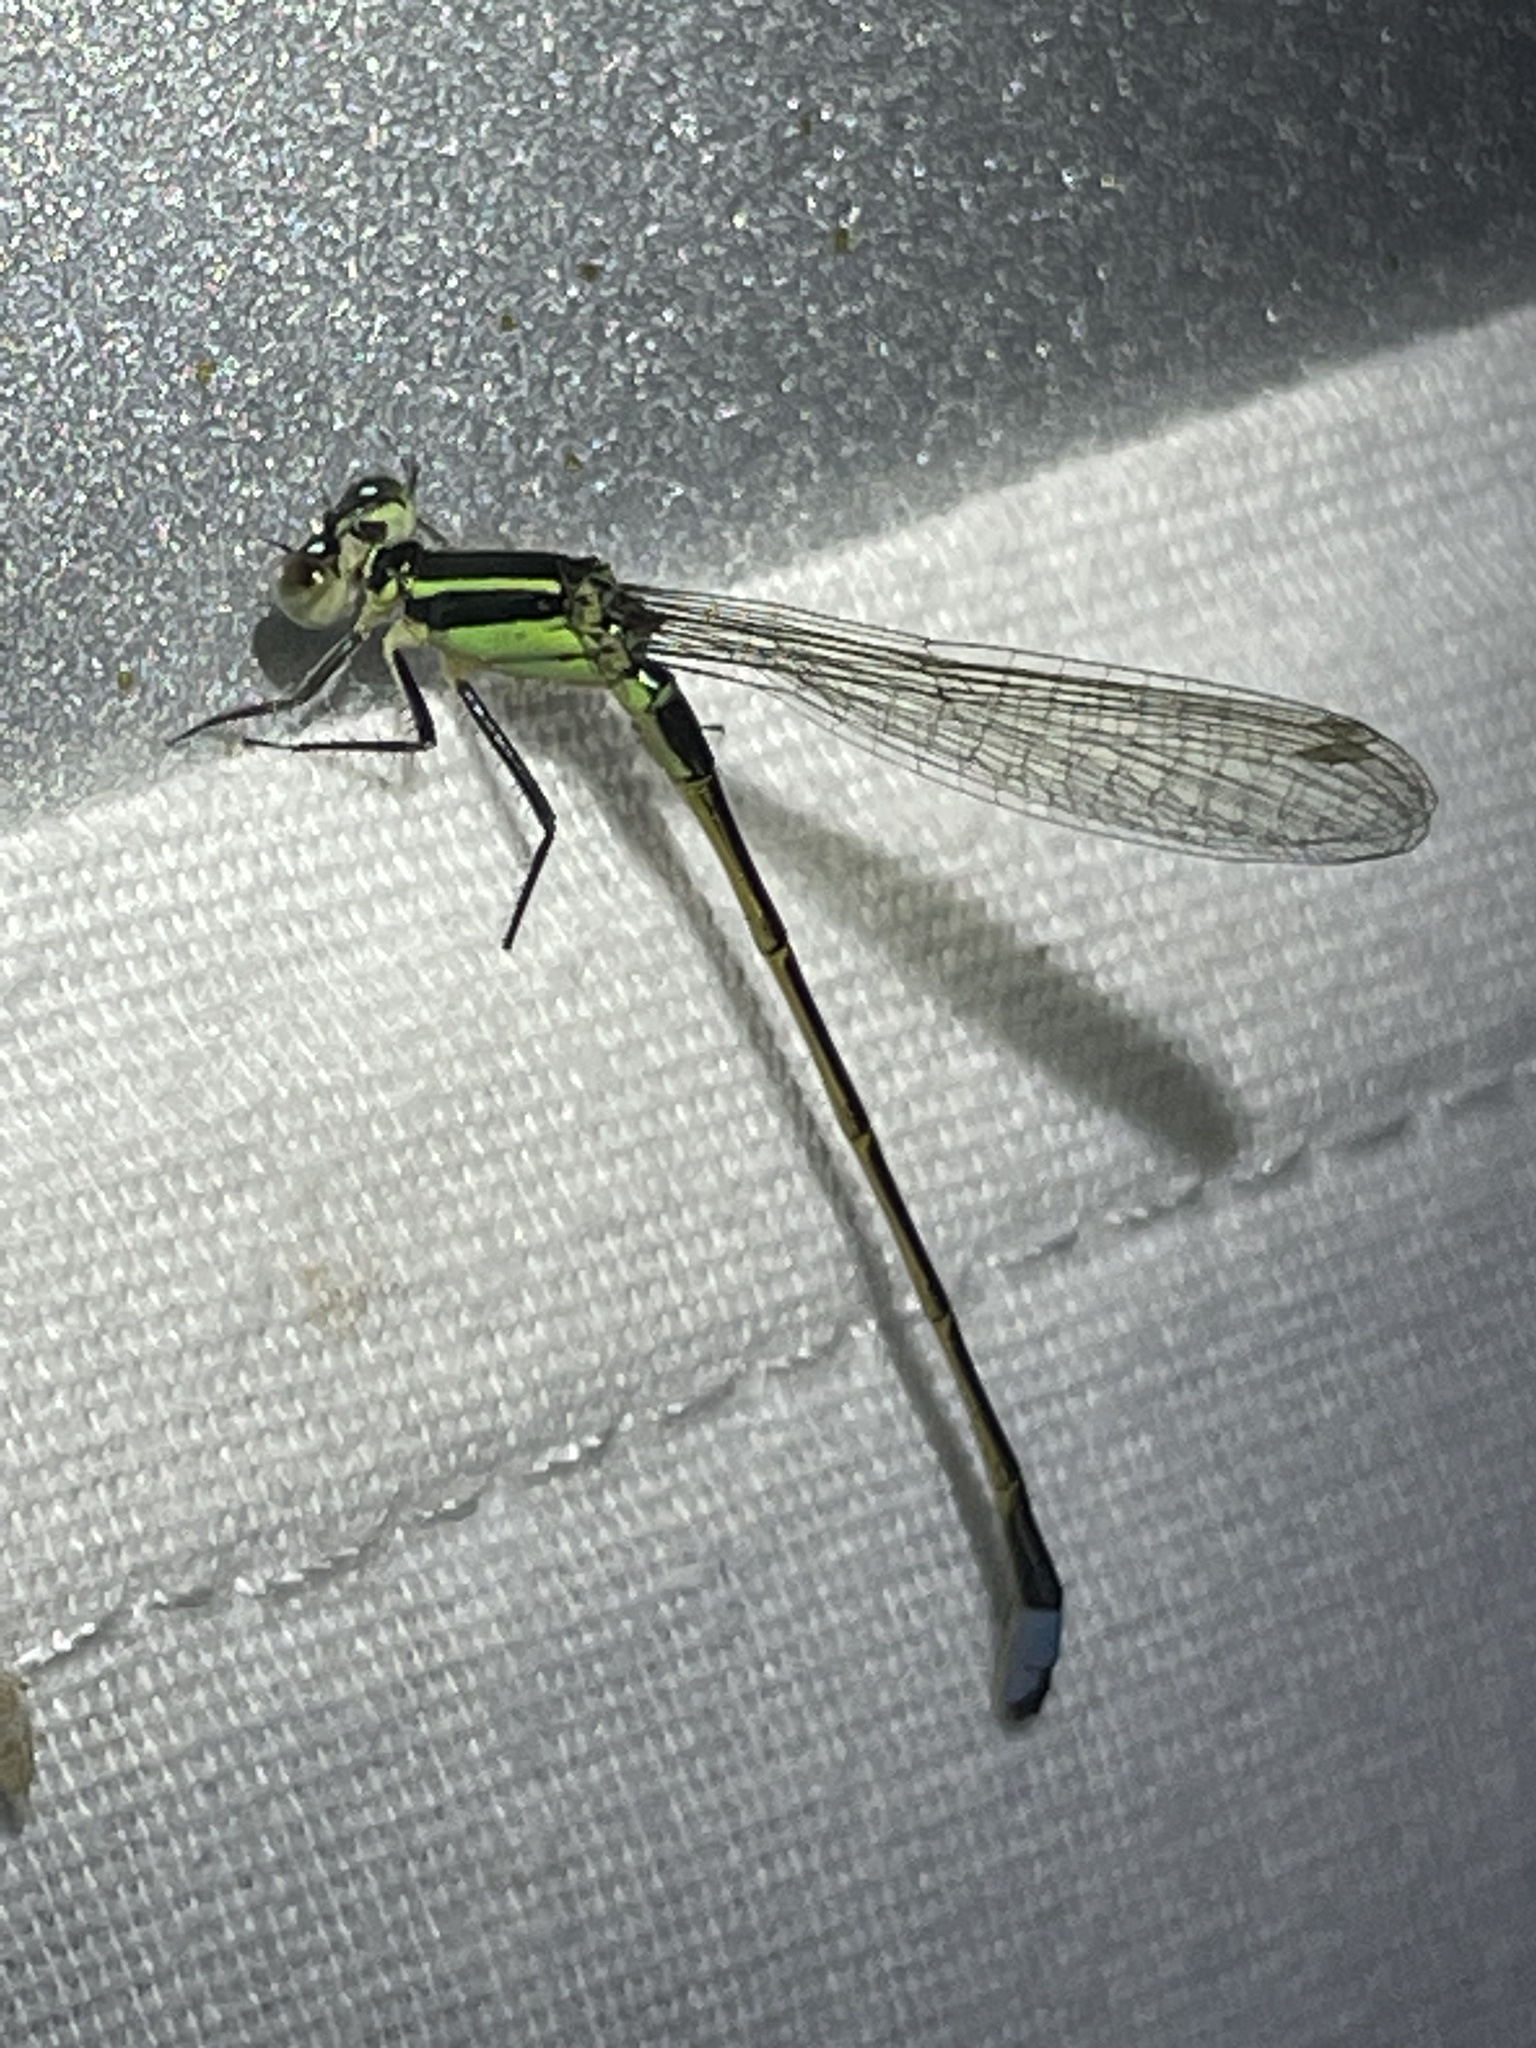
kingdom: Animalia
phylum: Arthropoda
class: Insecta
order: Odonata
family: Coenagrionidae
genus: Ischnura
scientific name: Ischnura ramburii
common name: Rambur's forktail
